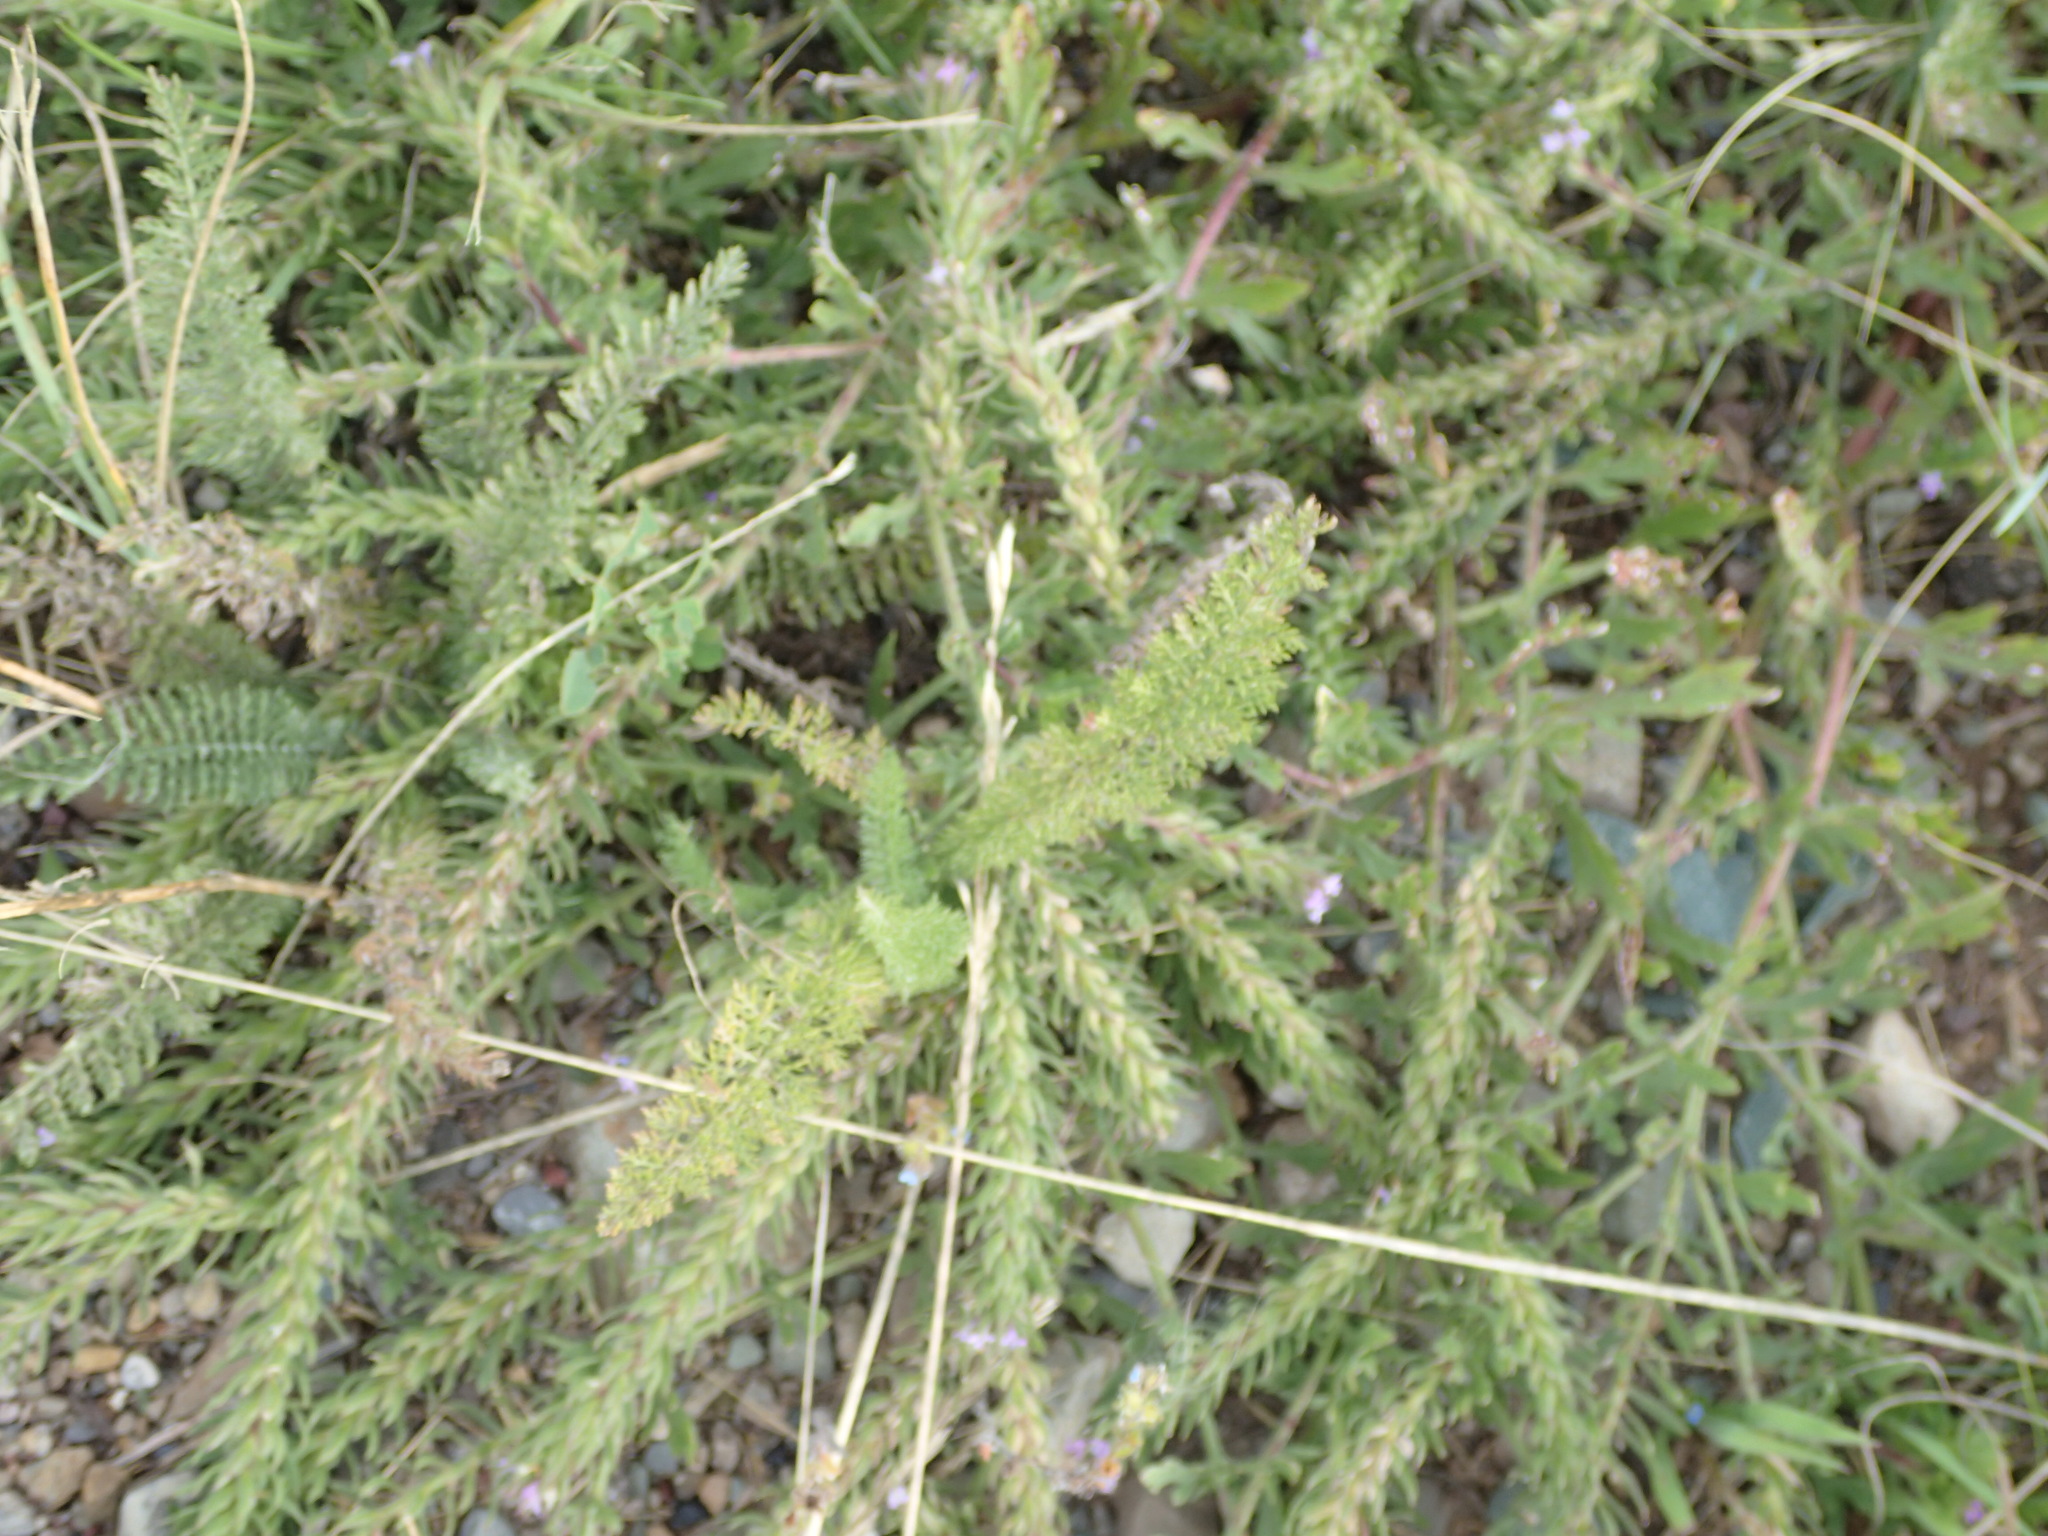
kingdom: Plantae
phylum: Tracheophyta
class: Magnoliopsida
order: Lamiales
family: Verbenaceae
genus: Verbena
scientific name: Verbena bracteata
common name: Bracted vervain
